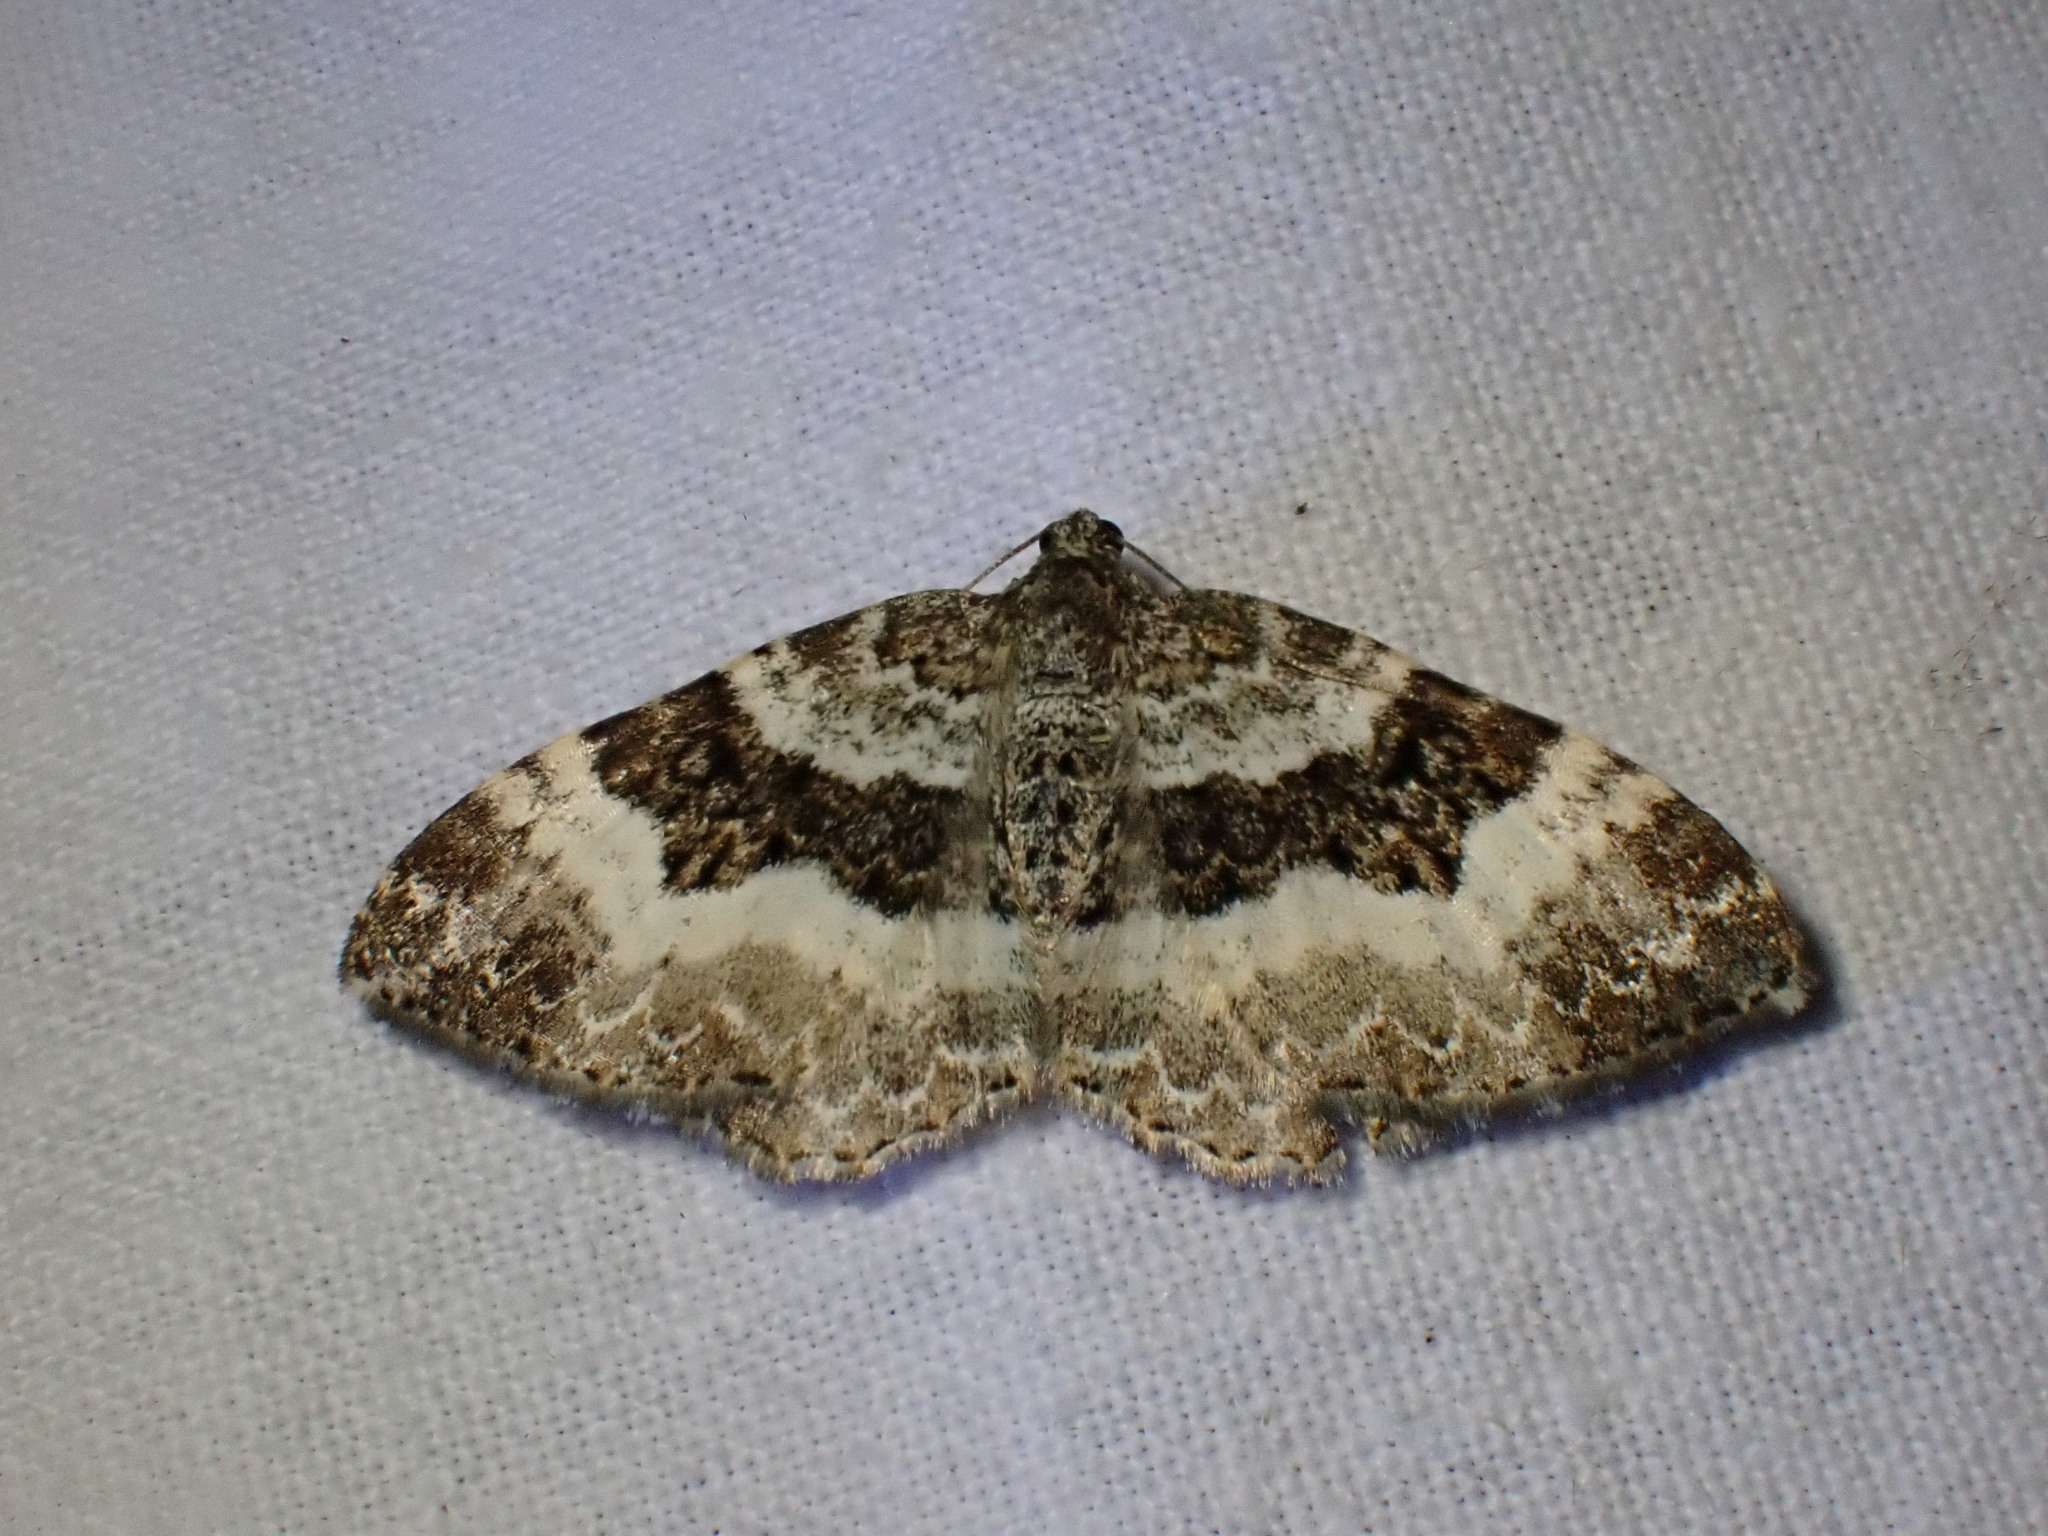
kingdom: Animalia
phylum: Arthropoda
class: Insecta
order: Lepidoptera
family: Geometridae
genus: Epirrhoe
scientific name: Epirrhoe alternata
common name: Common carpet
